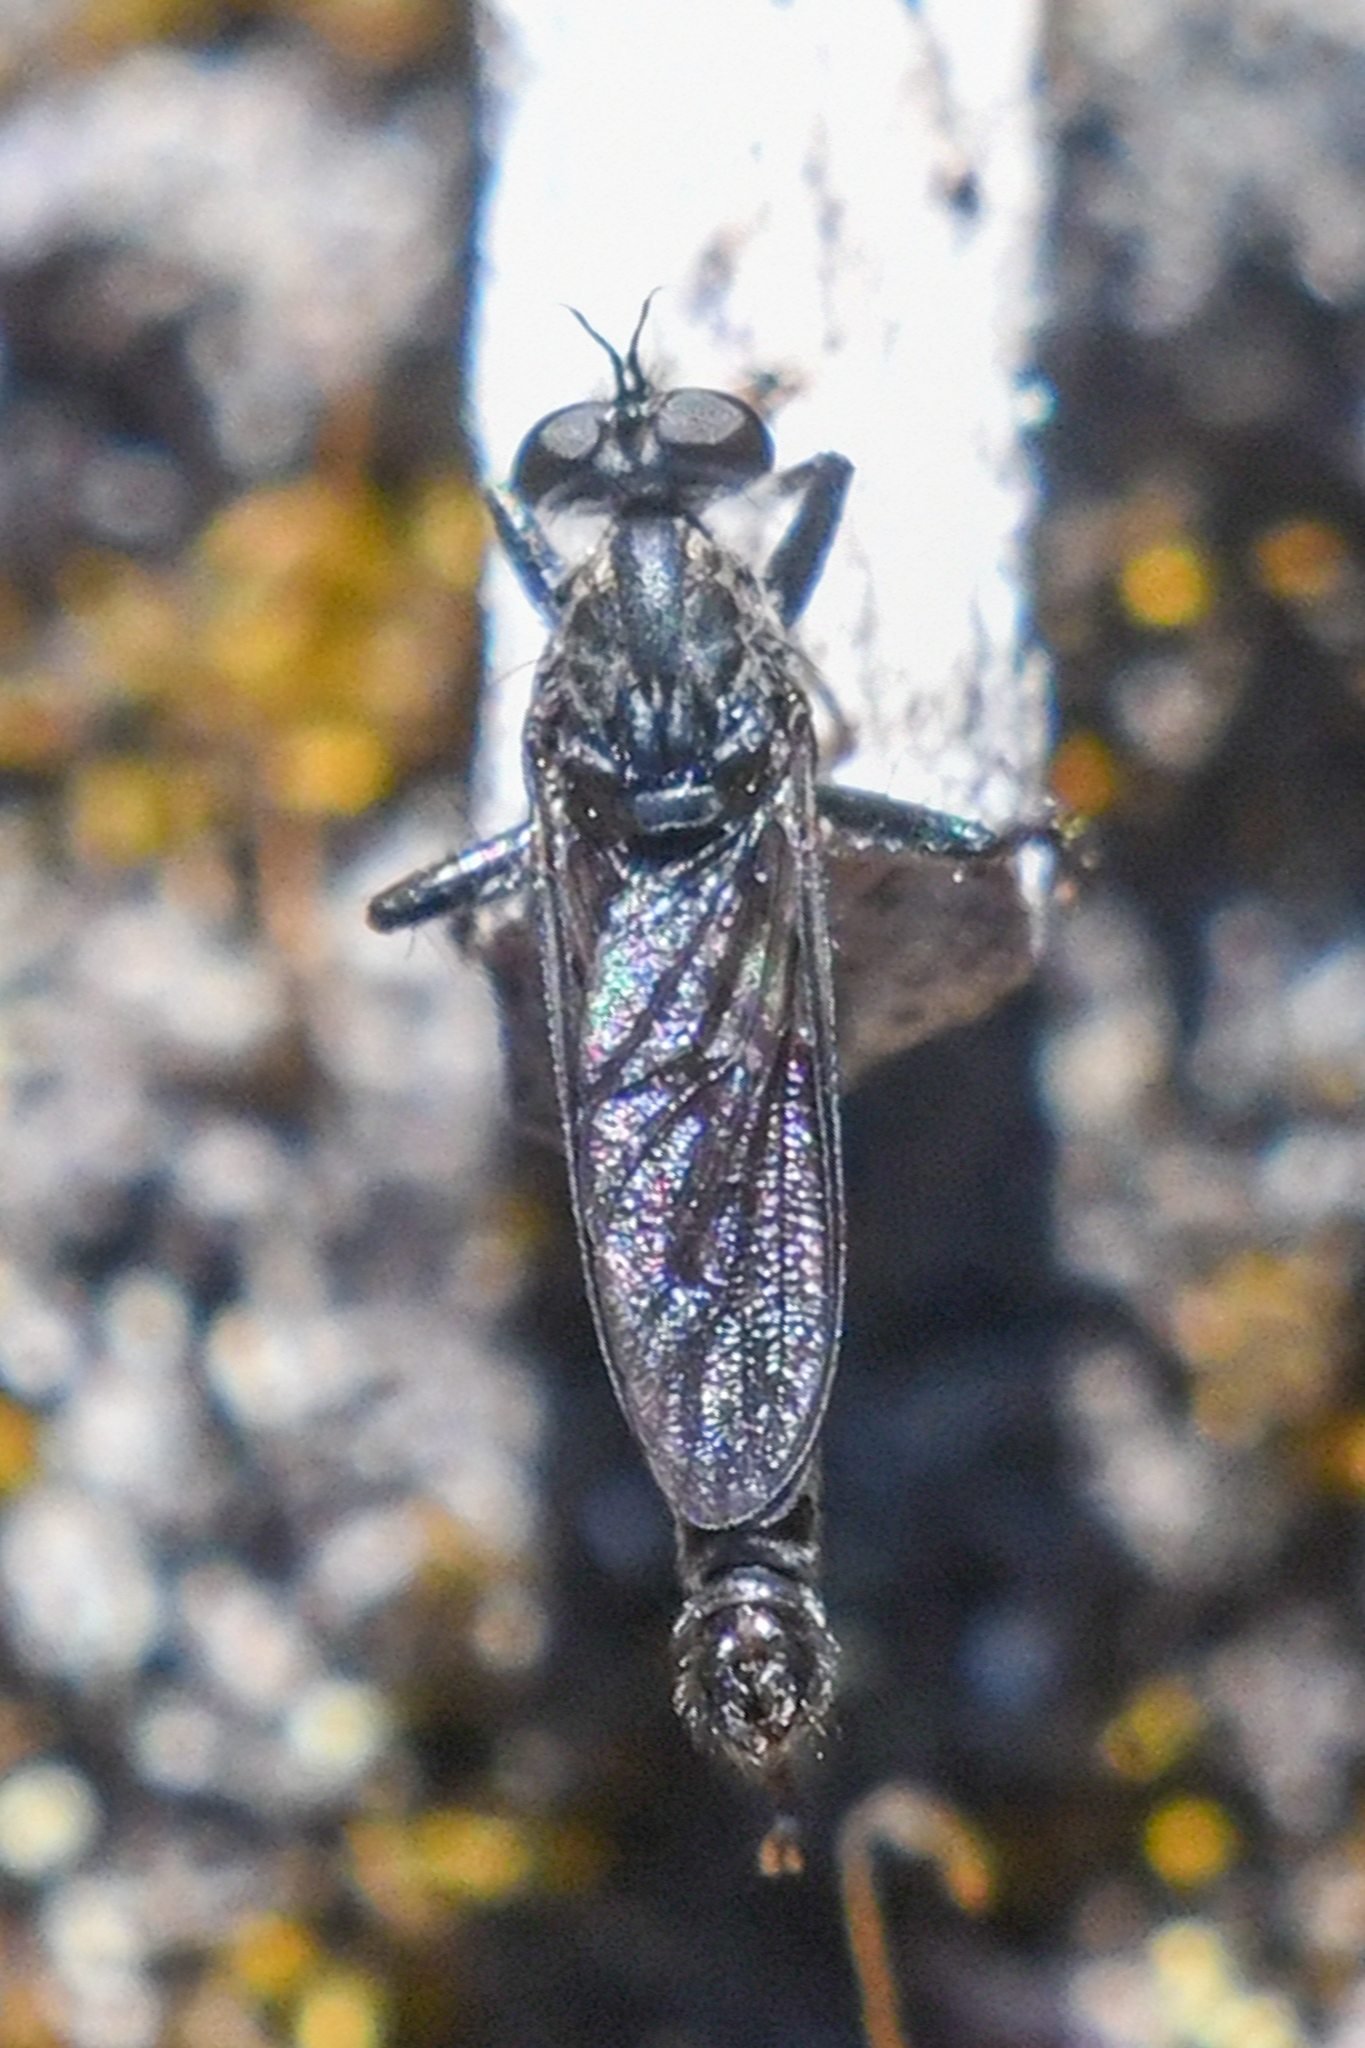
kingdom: Animalia
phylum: Arthropoda
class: Insecta
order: Diptera
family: Asilidae
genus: Rhadiurgus
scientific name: Rhadiurgus variabilis
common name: Northern robberfly
